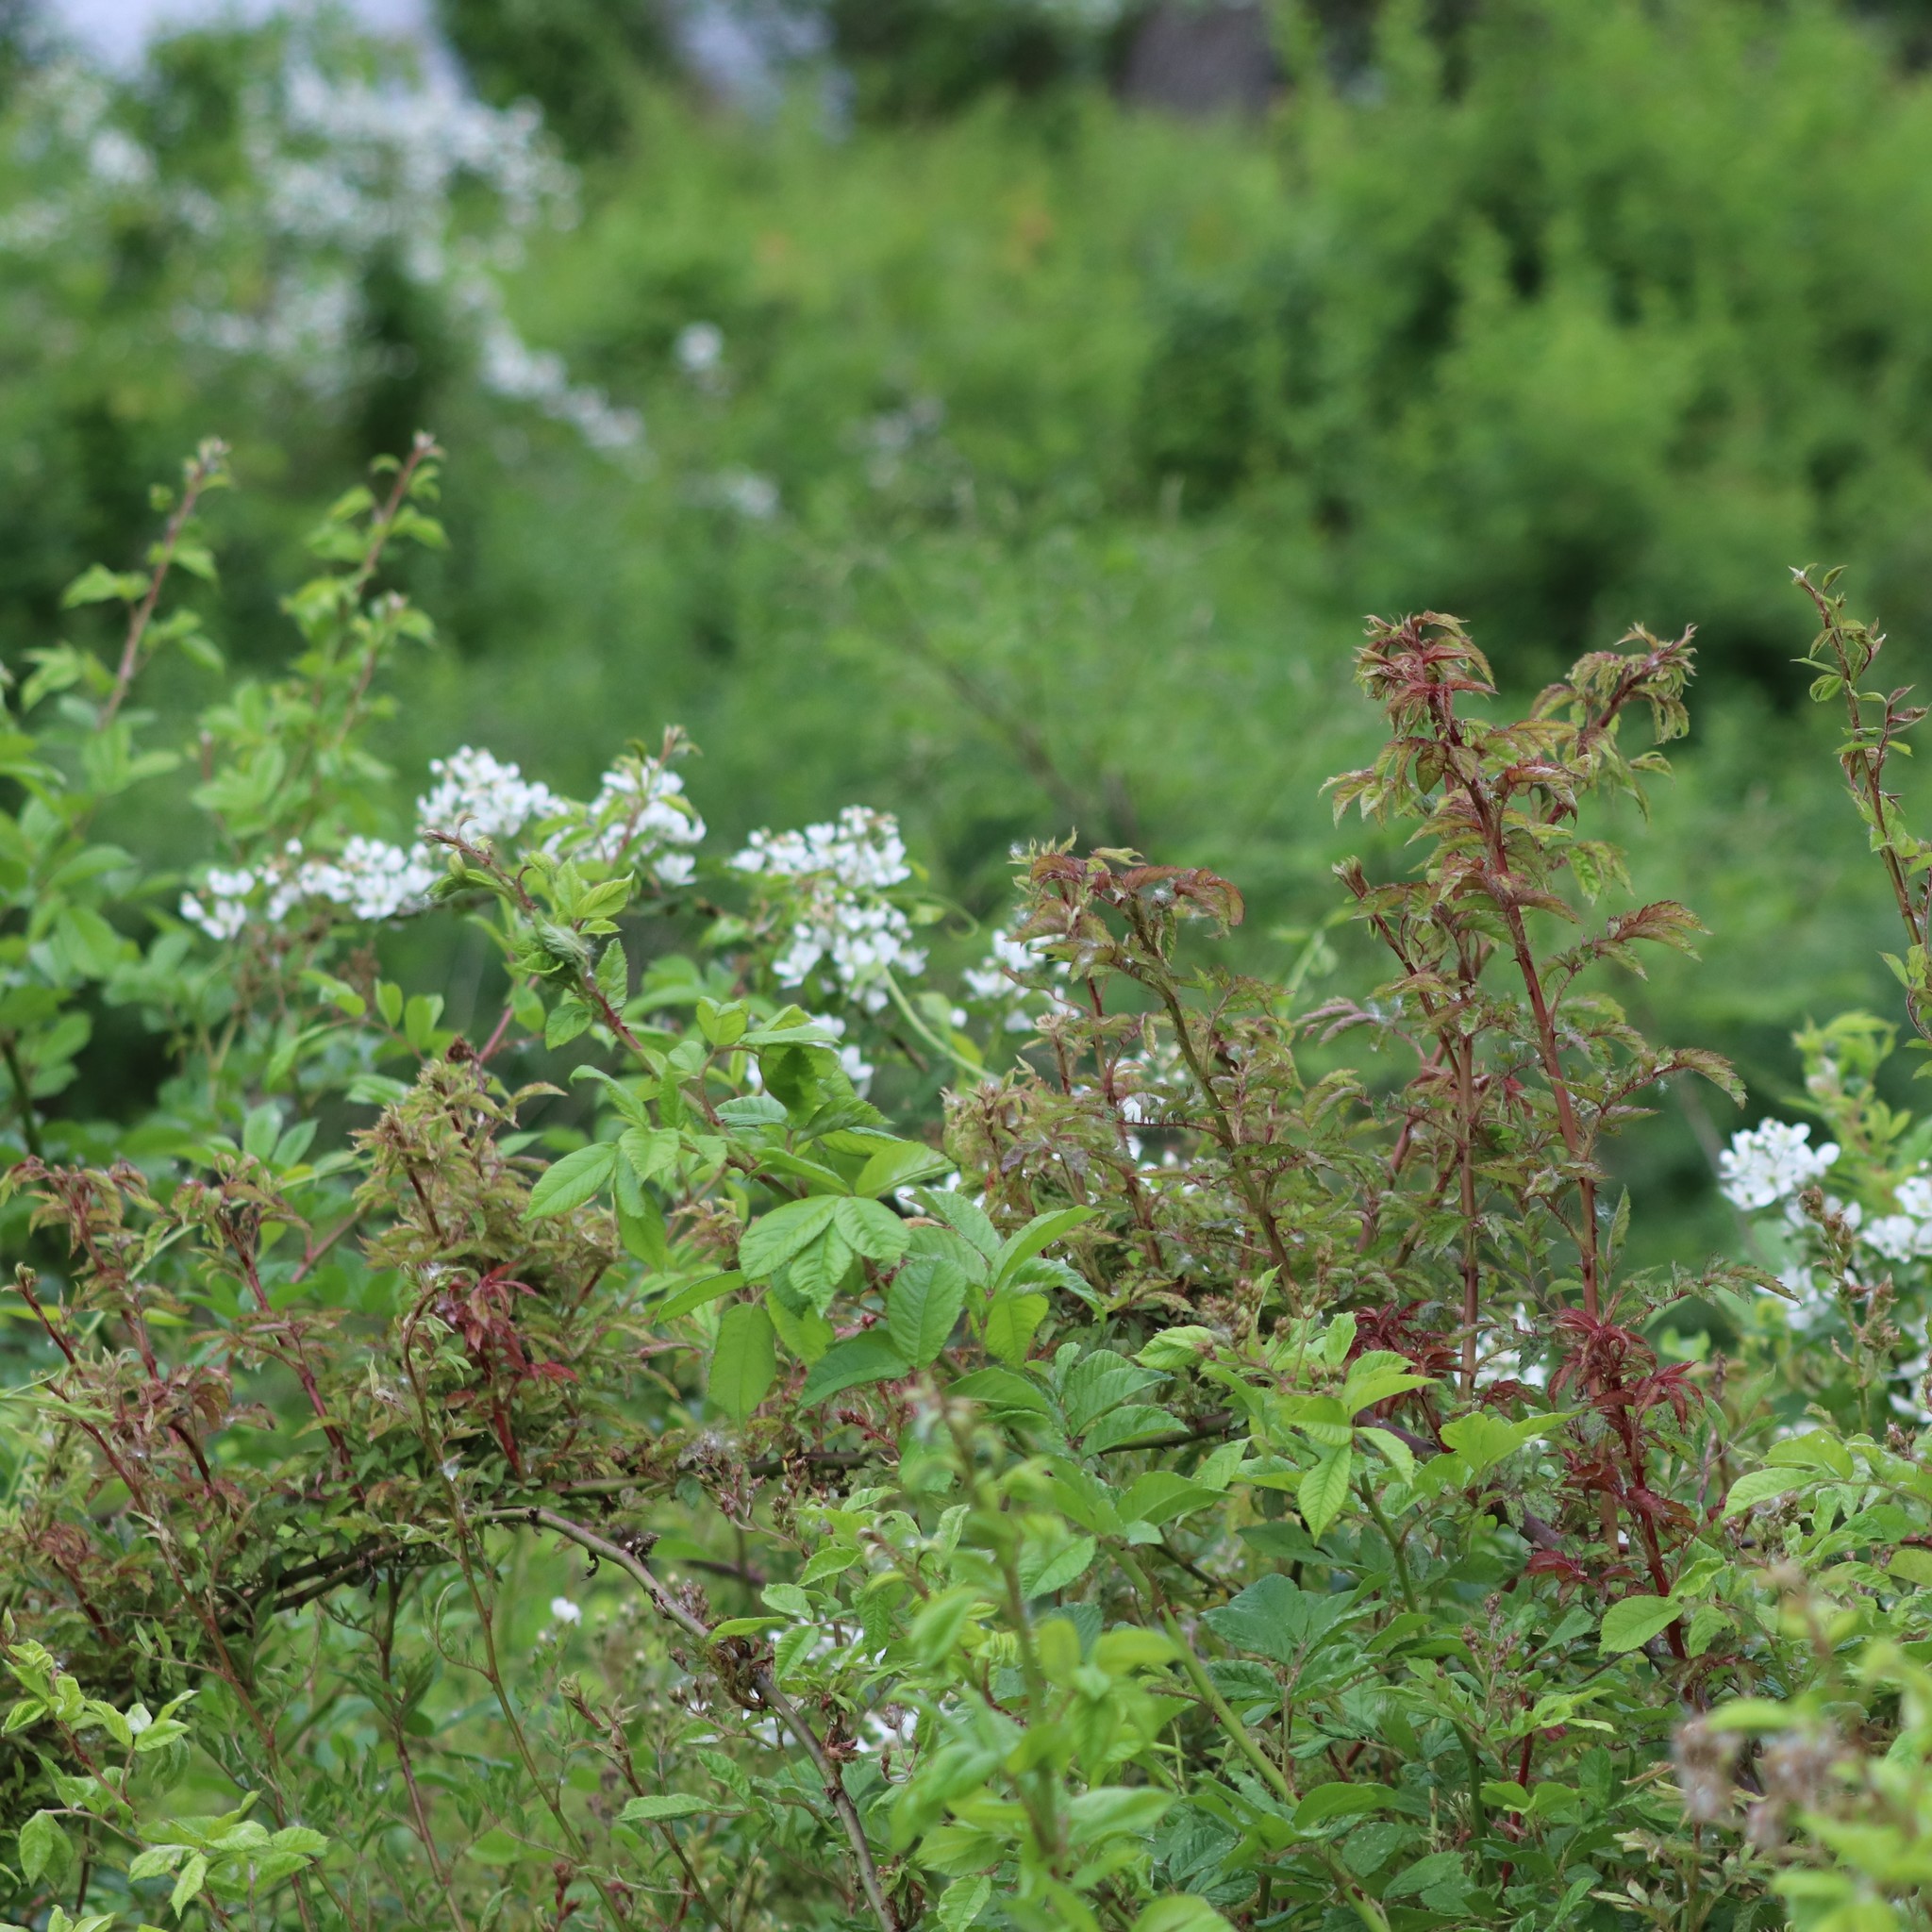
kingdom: Plantae
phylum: Tracheophyta
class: Magnoliopsida
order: Rosales
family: Rosaceae
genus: Rosa
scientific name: Rosa multiflora
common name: Multiflora rose
